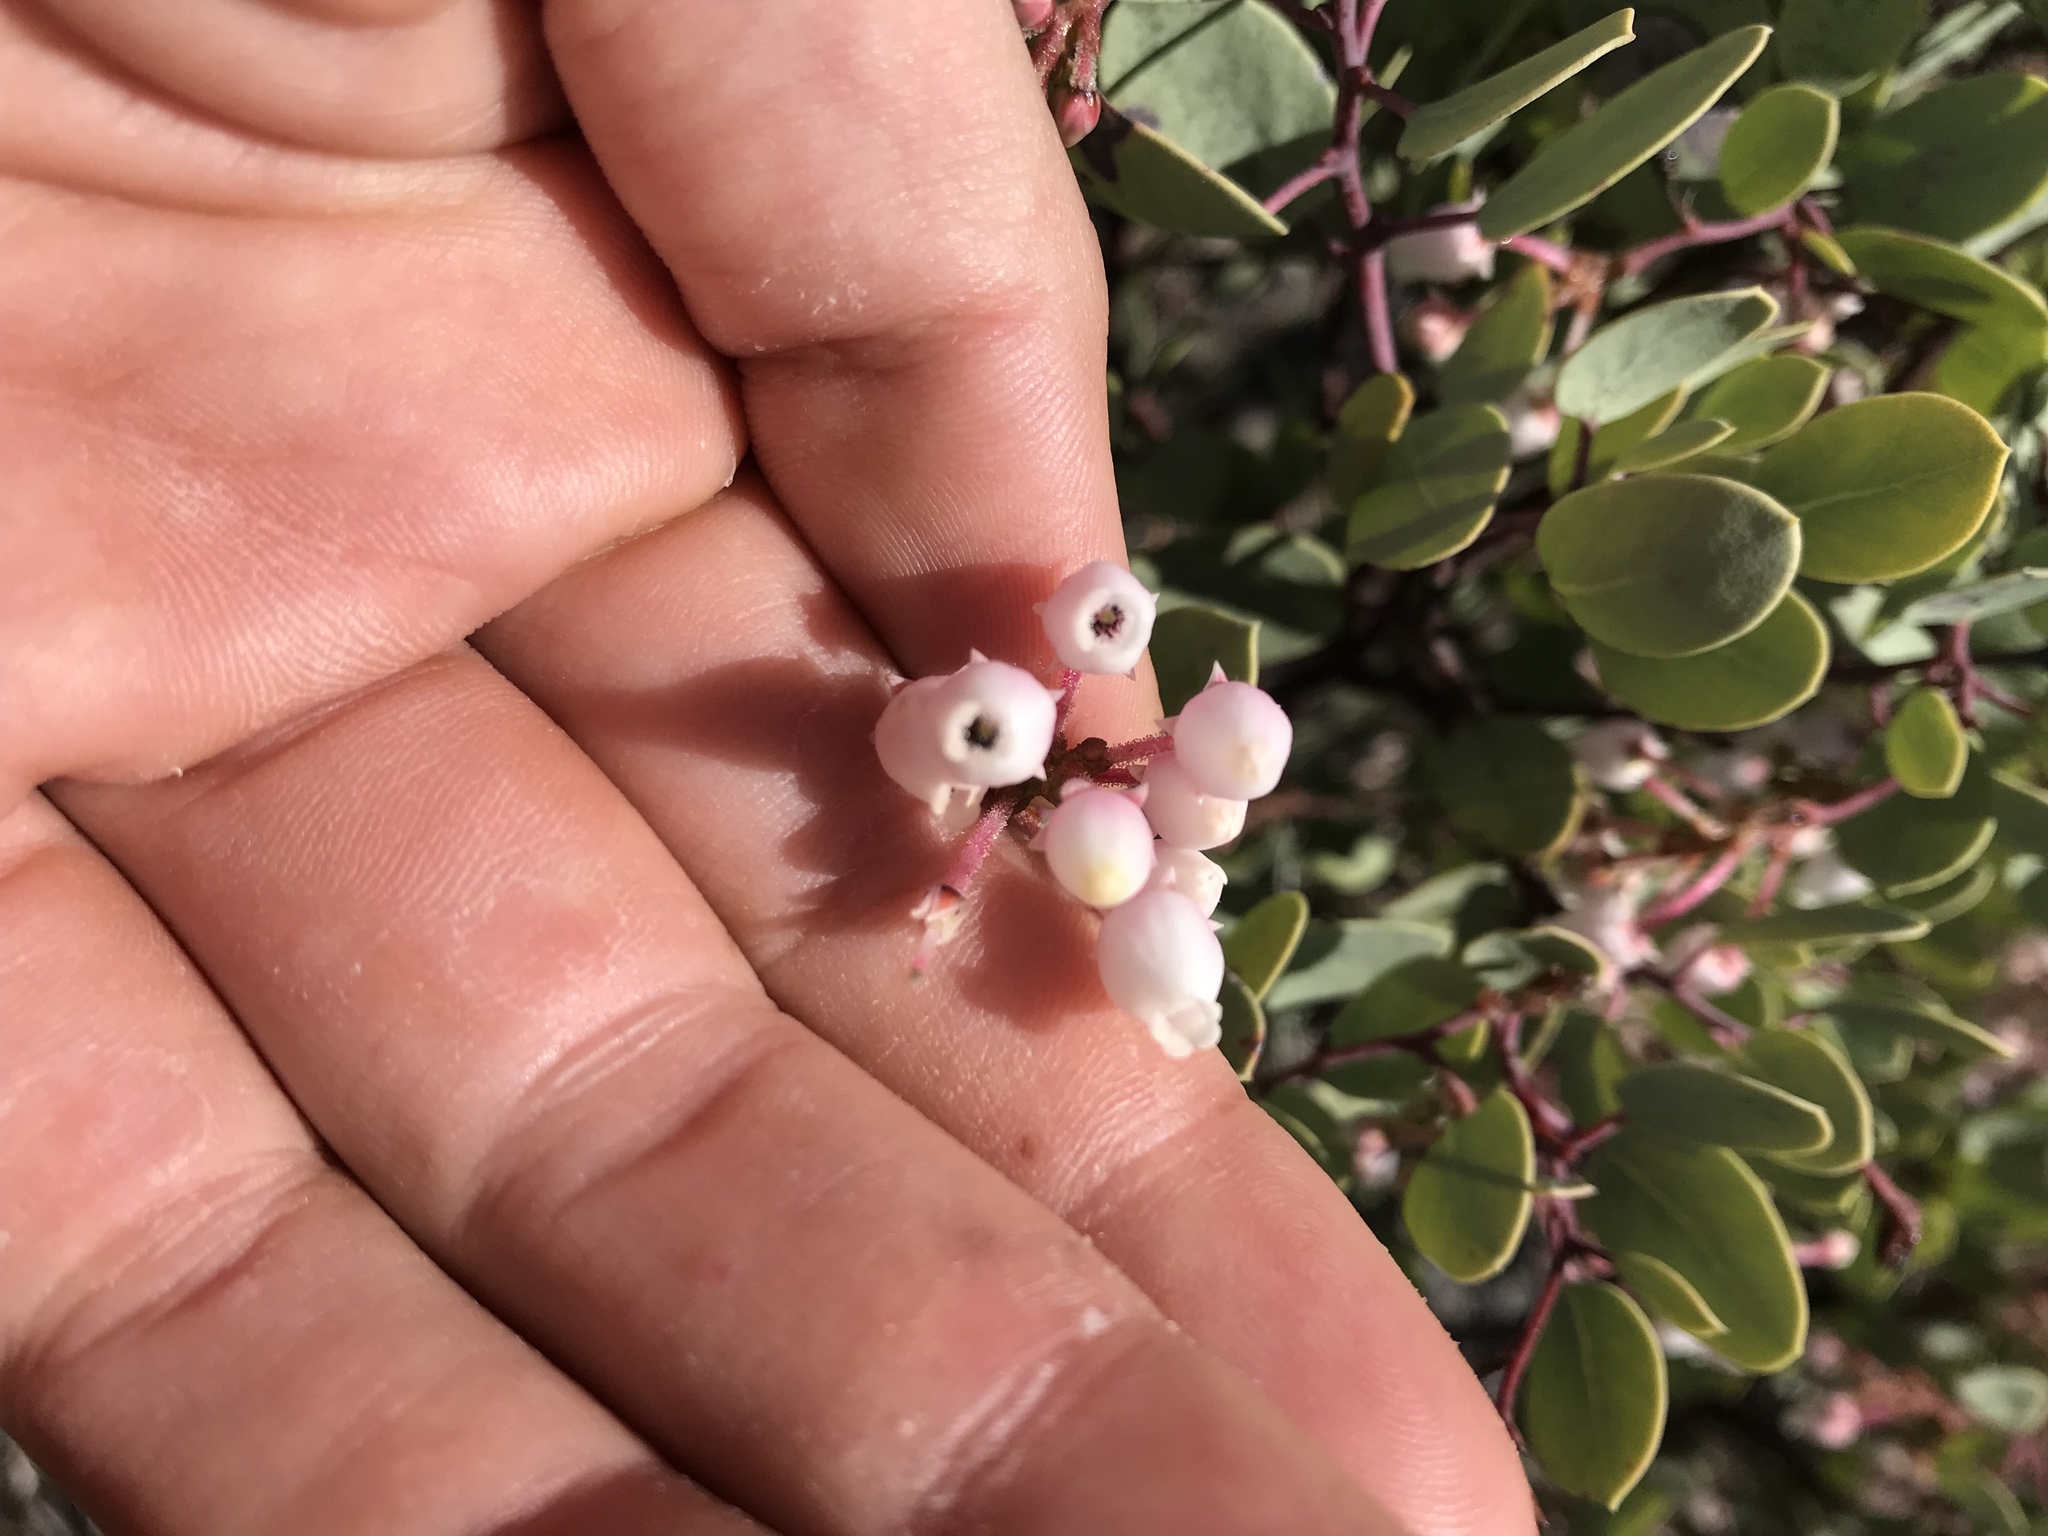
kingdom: Plantae
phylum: Tracheophyta
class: Magnoliopsida
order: Ericales
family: Ericaceae
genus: Arctostaphylos
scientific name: Arctostaphylos viscida
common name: White-leaf manzanita
